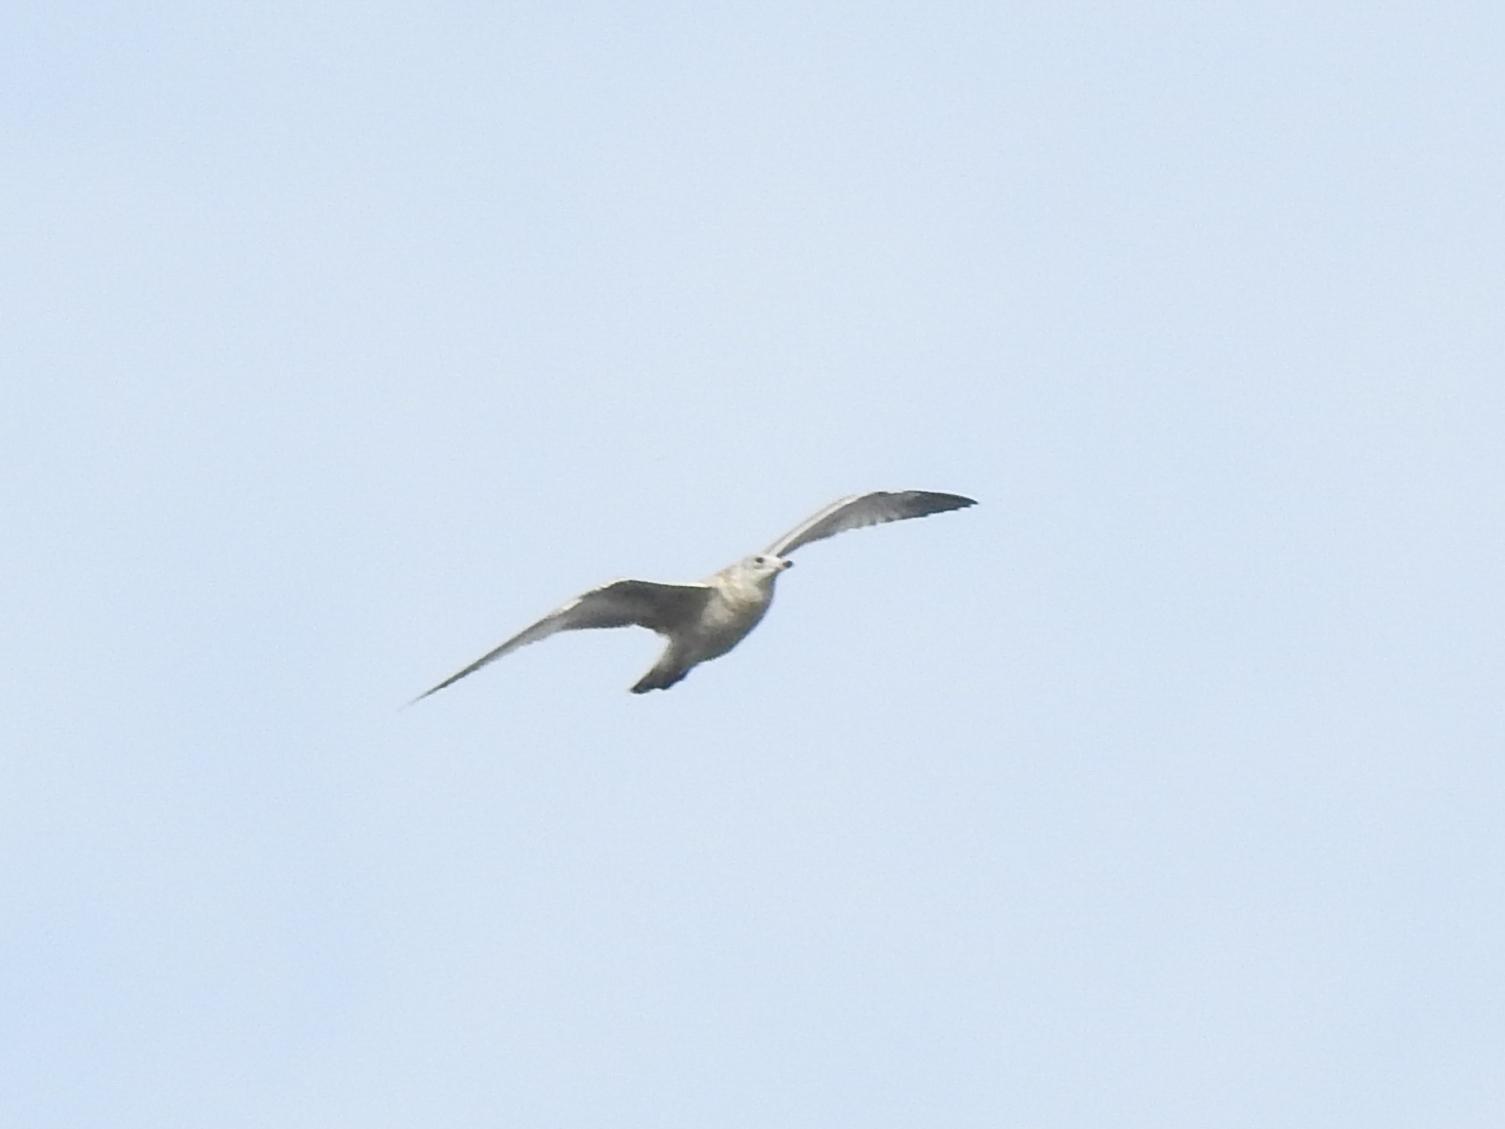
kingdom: Animalia
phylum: Chordata
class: Aves
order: Charadriiformes
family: Laridae
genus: Larus
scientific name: Larus argentatus
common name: Herring gull
